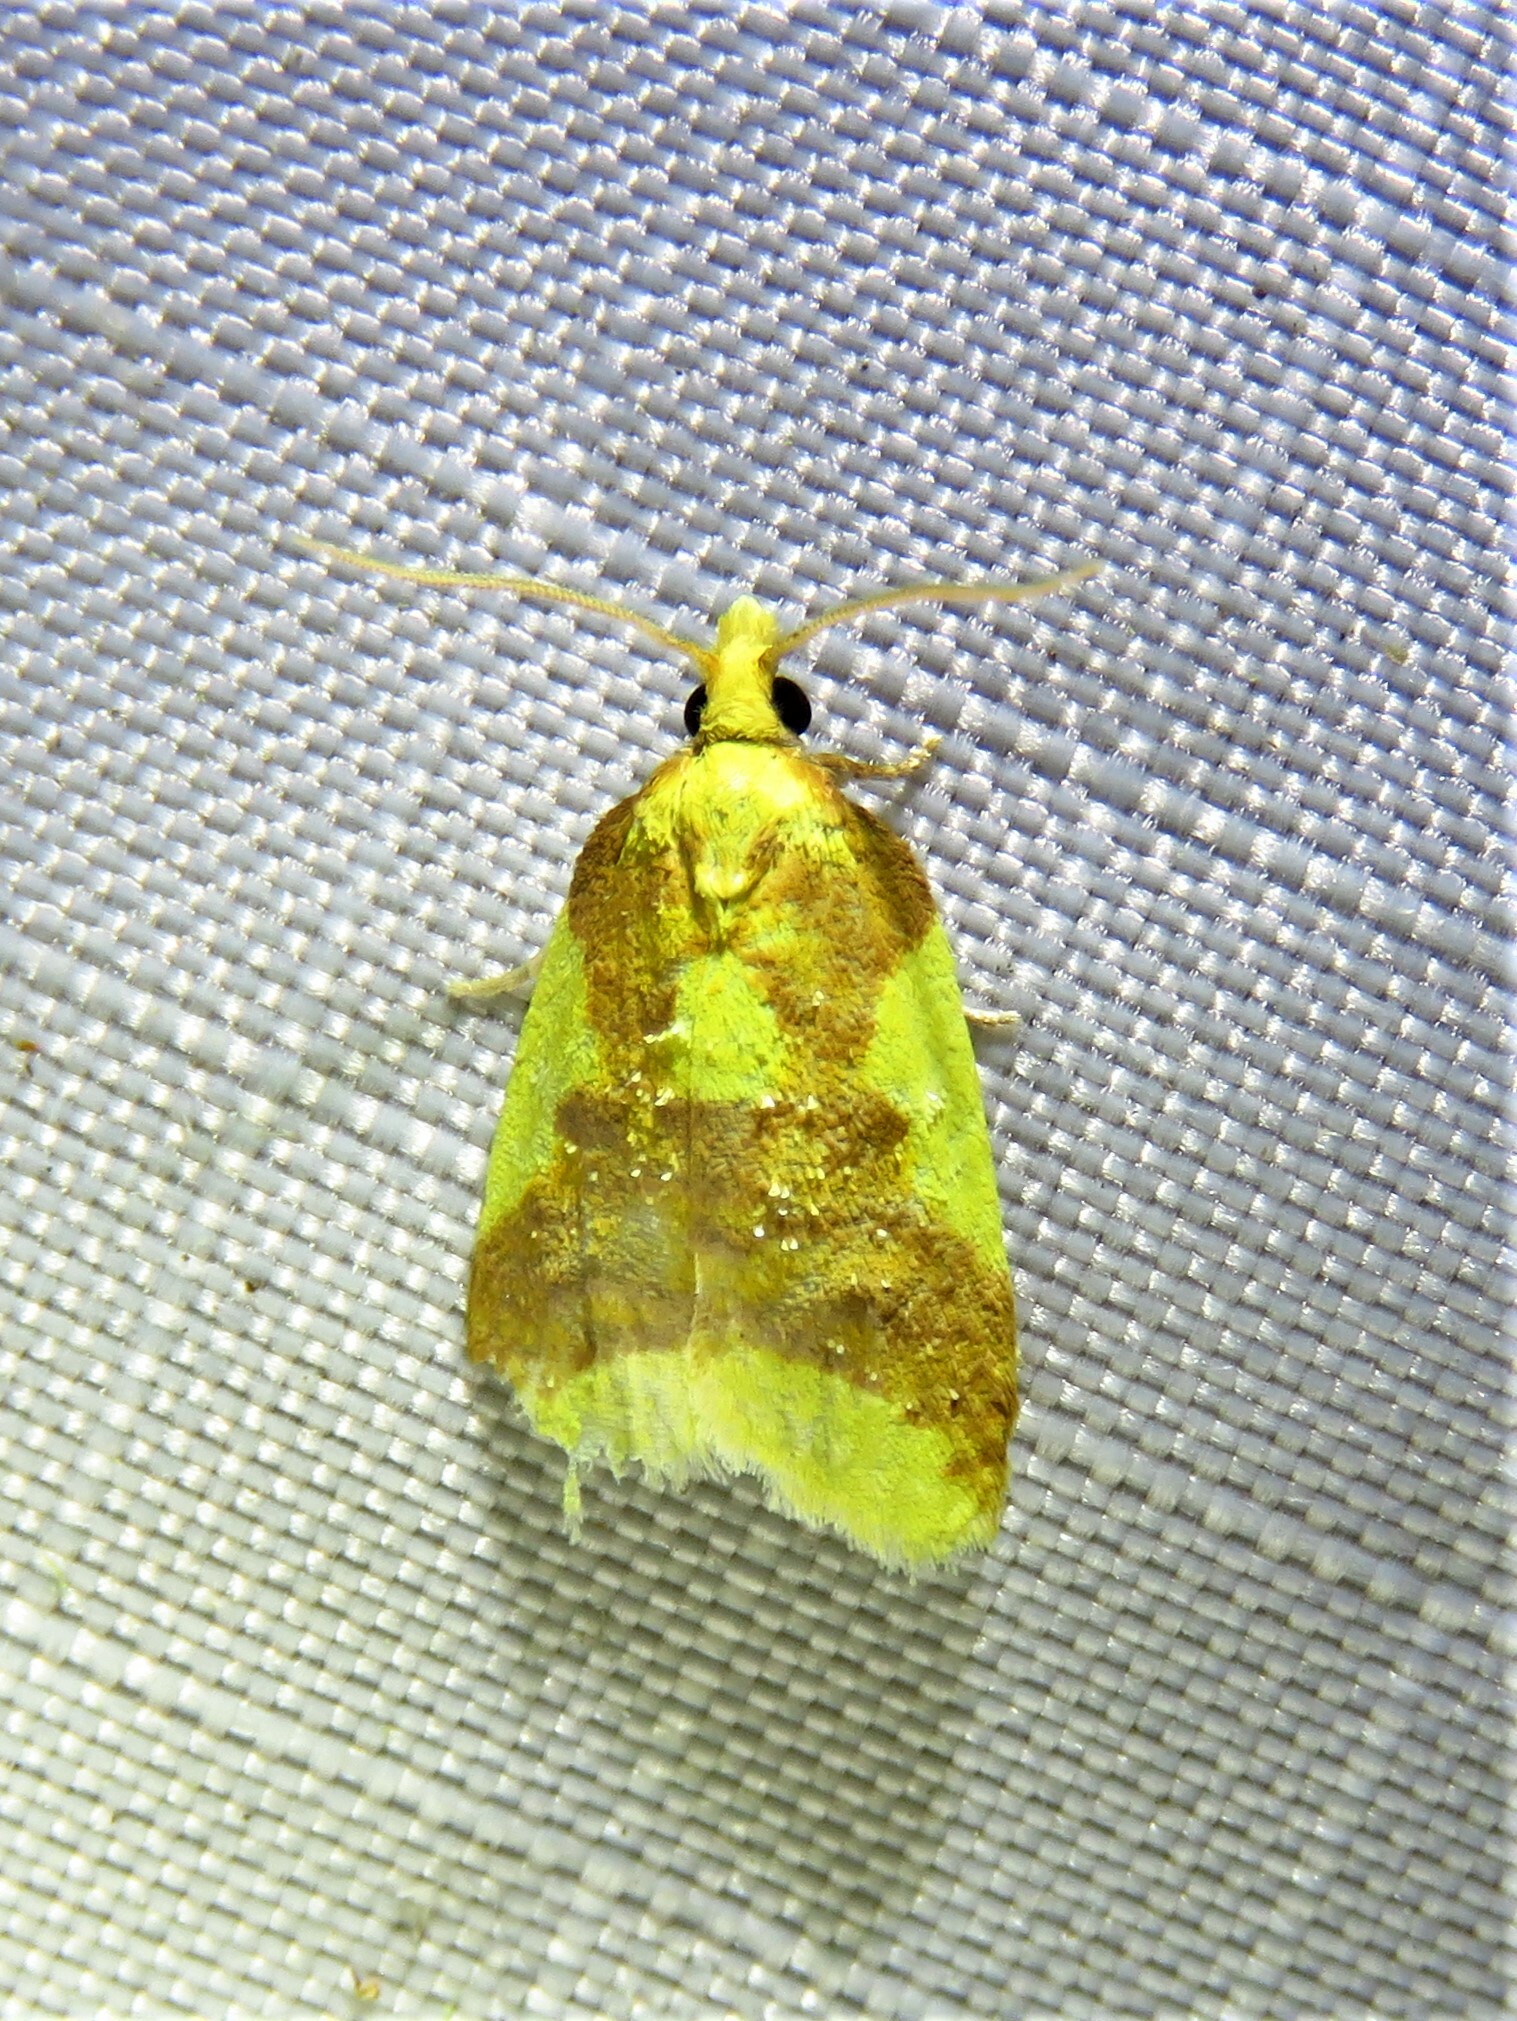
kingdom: Animalia
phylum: Arthropoda
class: Insecta
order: Lepidoptera
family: Tortricidae
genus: Sparganothis
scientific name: Sparganothis pulcherrimana
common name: Beautiful sparganothis
